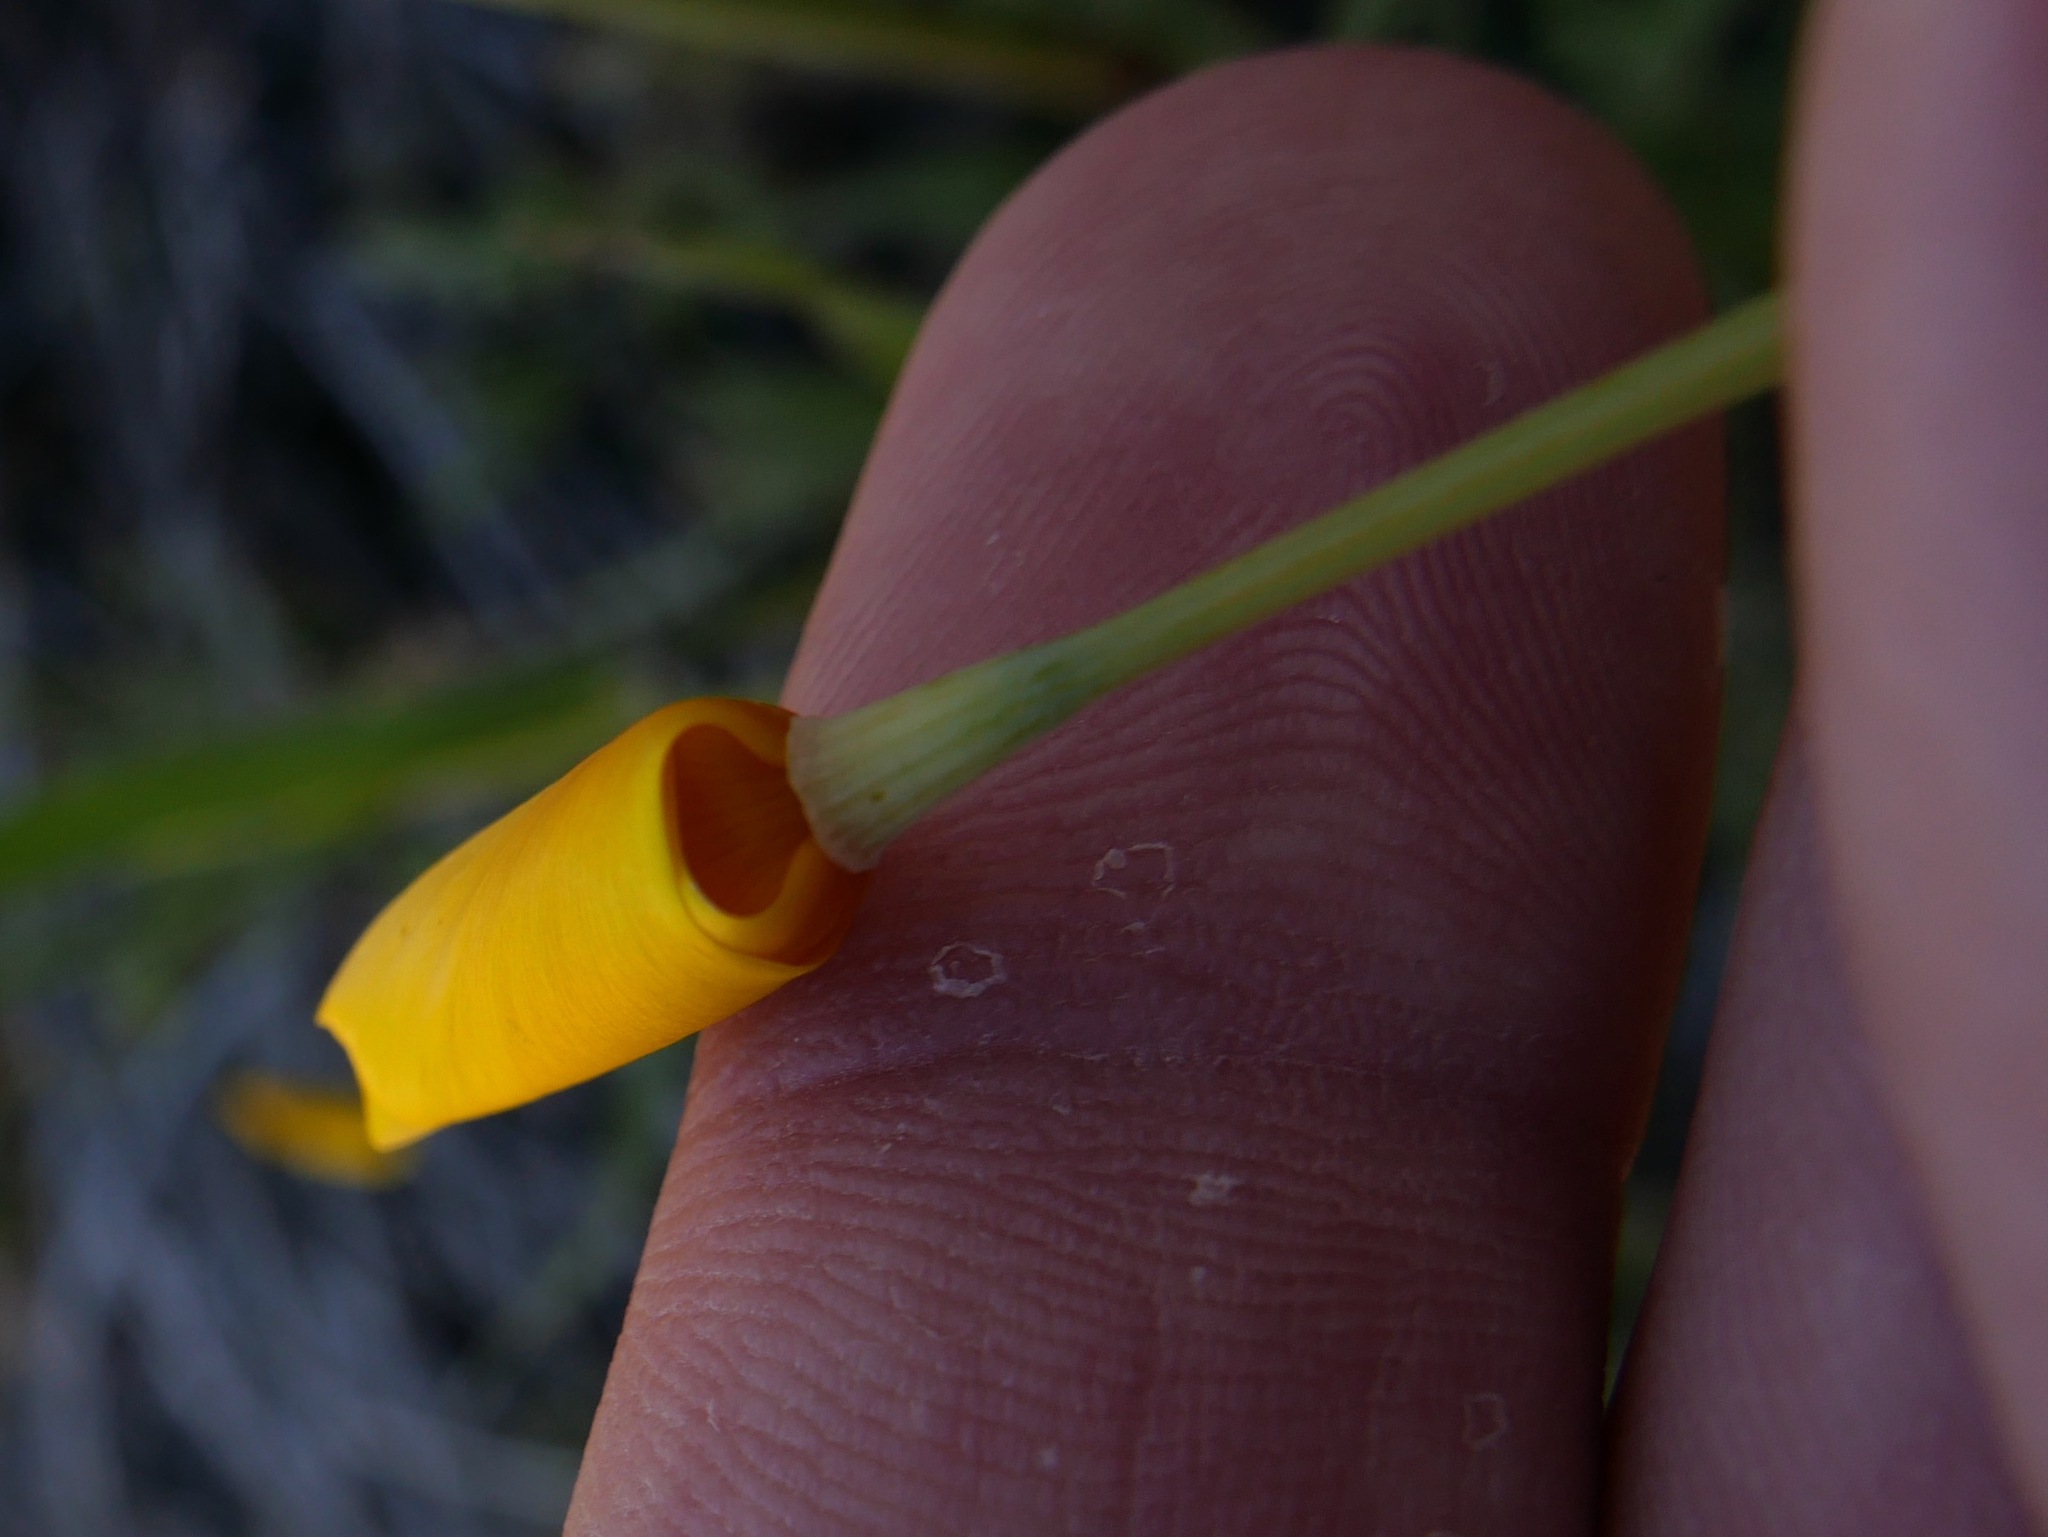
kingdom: Plantae
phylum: Tracheophyta
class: Magnoliopsida
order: Ranunculales
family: Papaveraceae
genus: Eschscholzia
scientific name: Eschscholzia caespitosa
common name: Tufted california-poppy
